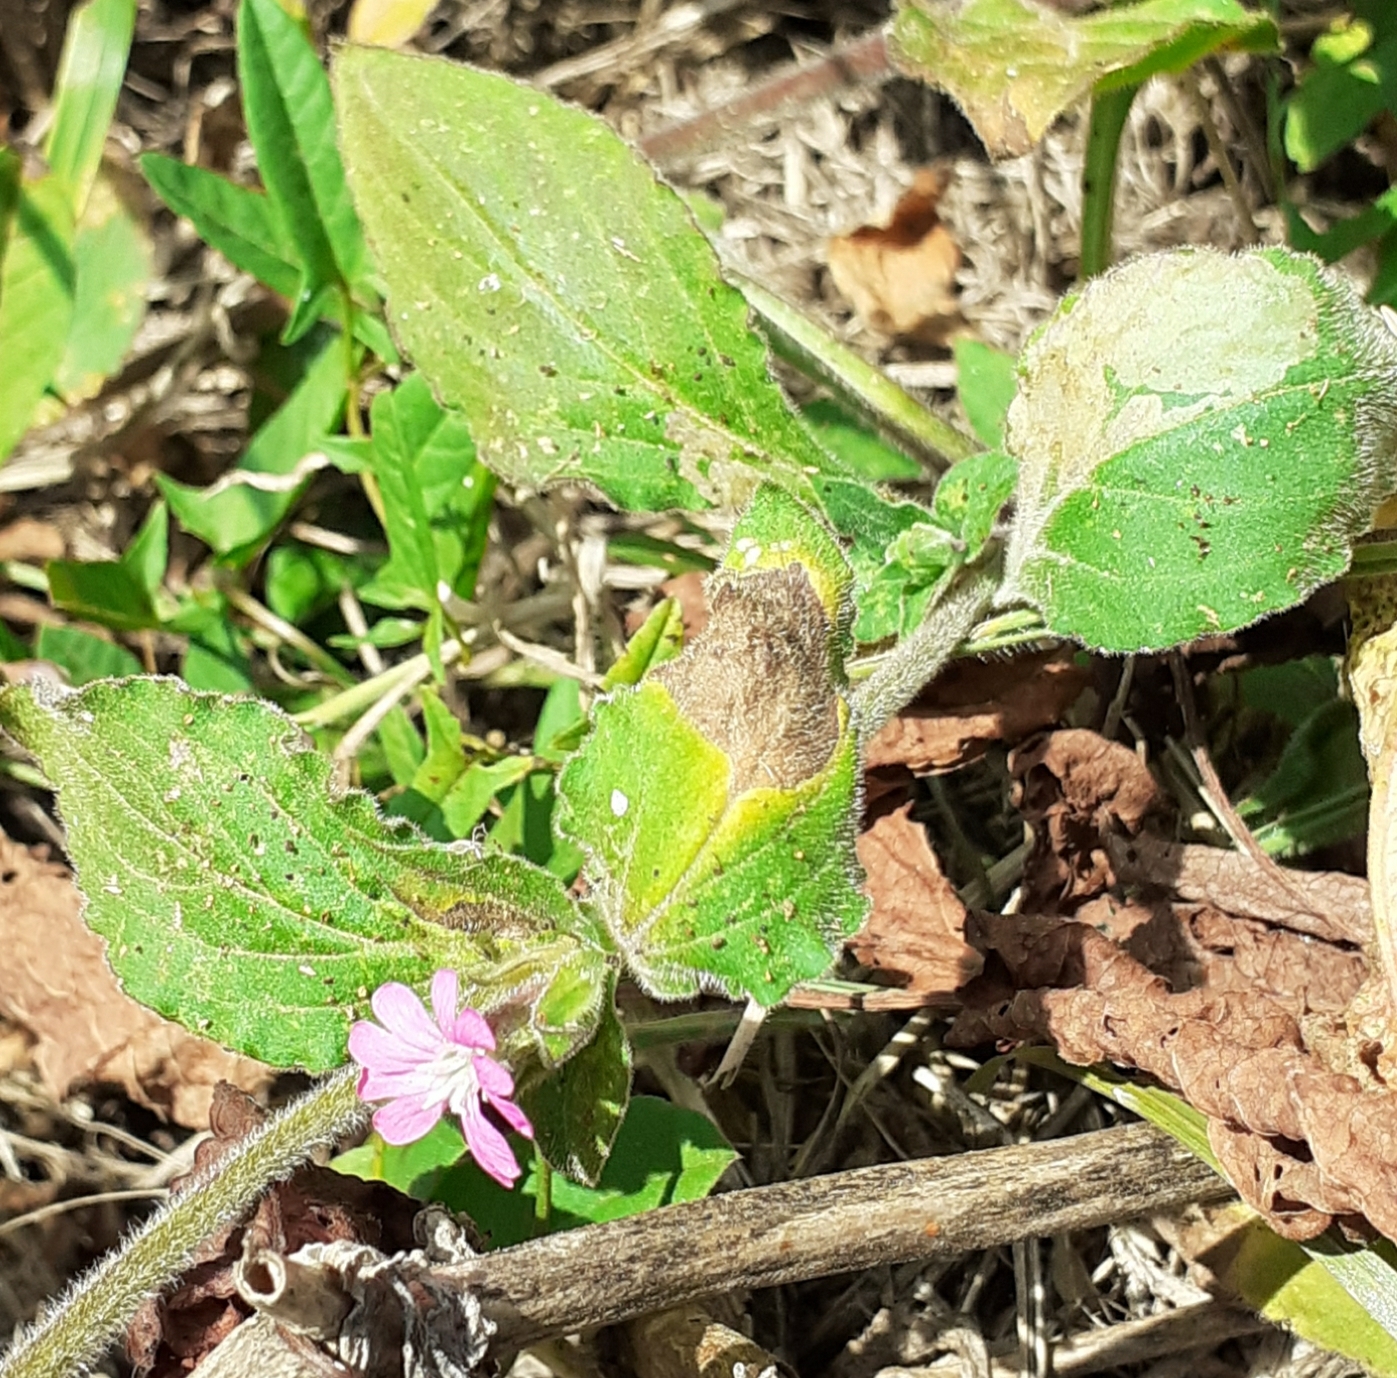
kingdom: Plantae
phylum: Tracheophyta
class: Magnoliopsida
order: Caryophyllales
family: Caryophyllaceae
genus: Silene
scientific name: Silene dioica
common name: Red campion
